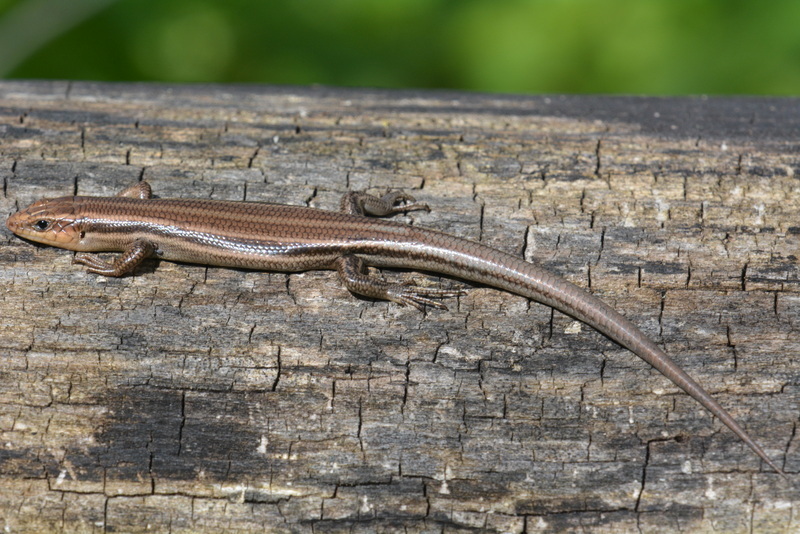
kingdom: Animalia
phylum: Chordata
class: Squamata
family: Scincidae
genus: Plestiodon
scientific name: Plestiodon fasciatus
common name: Five-lined skink
